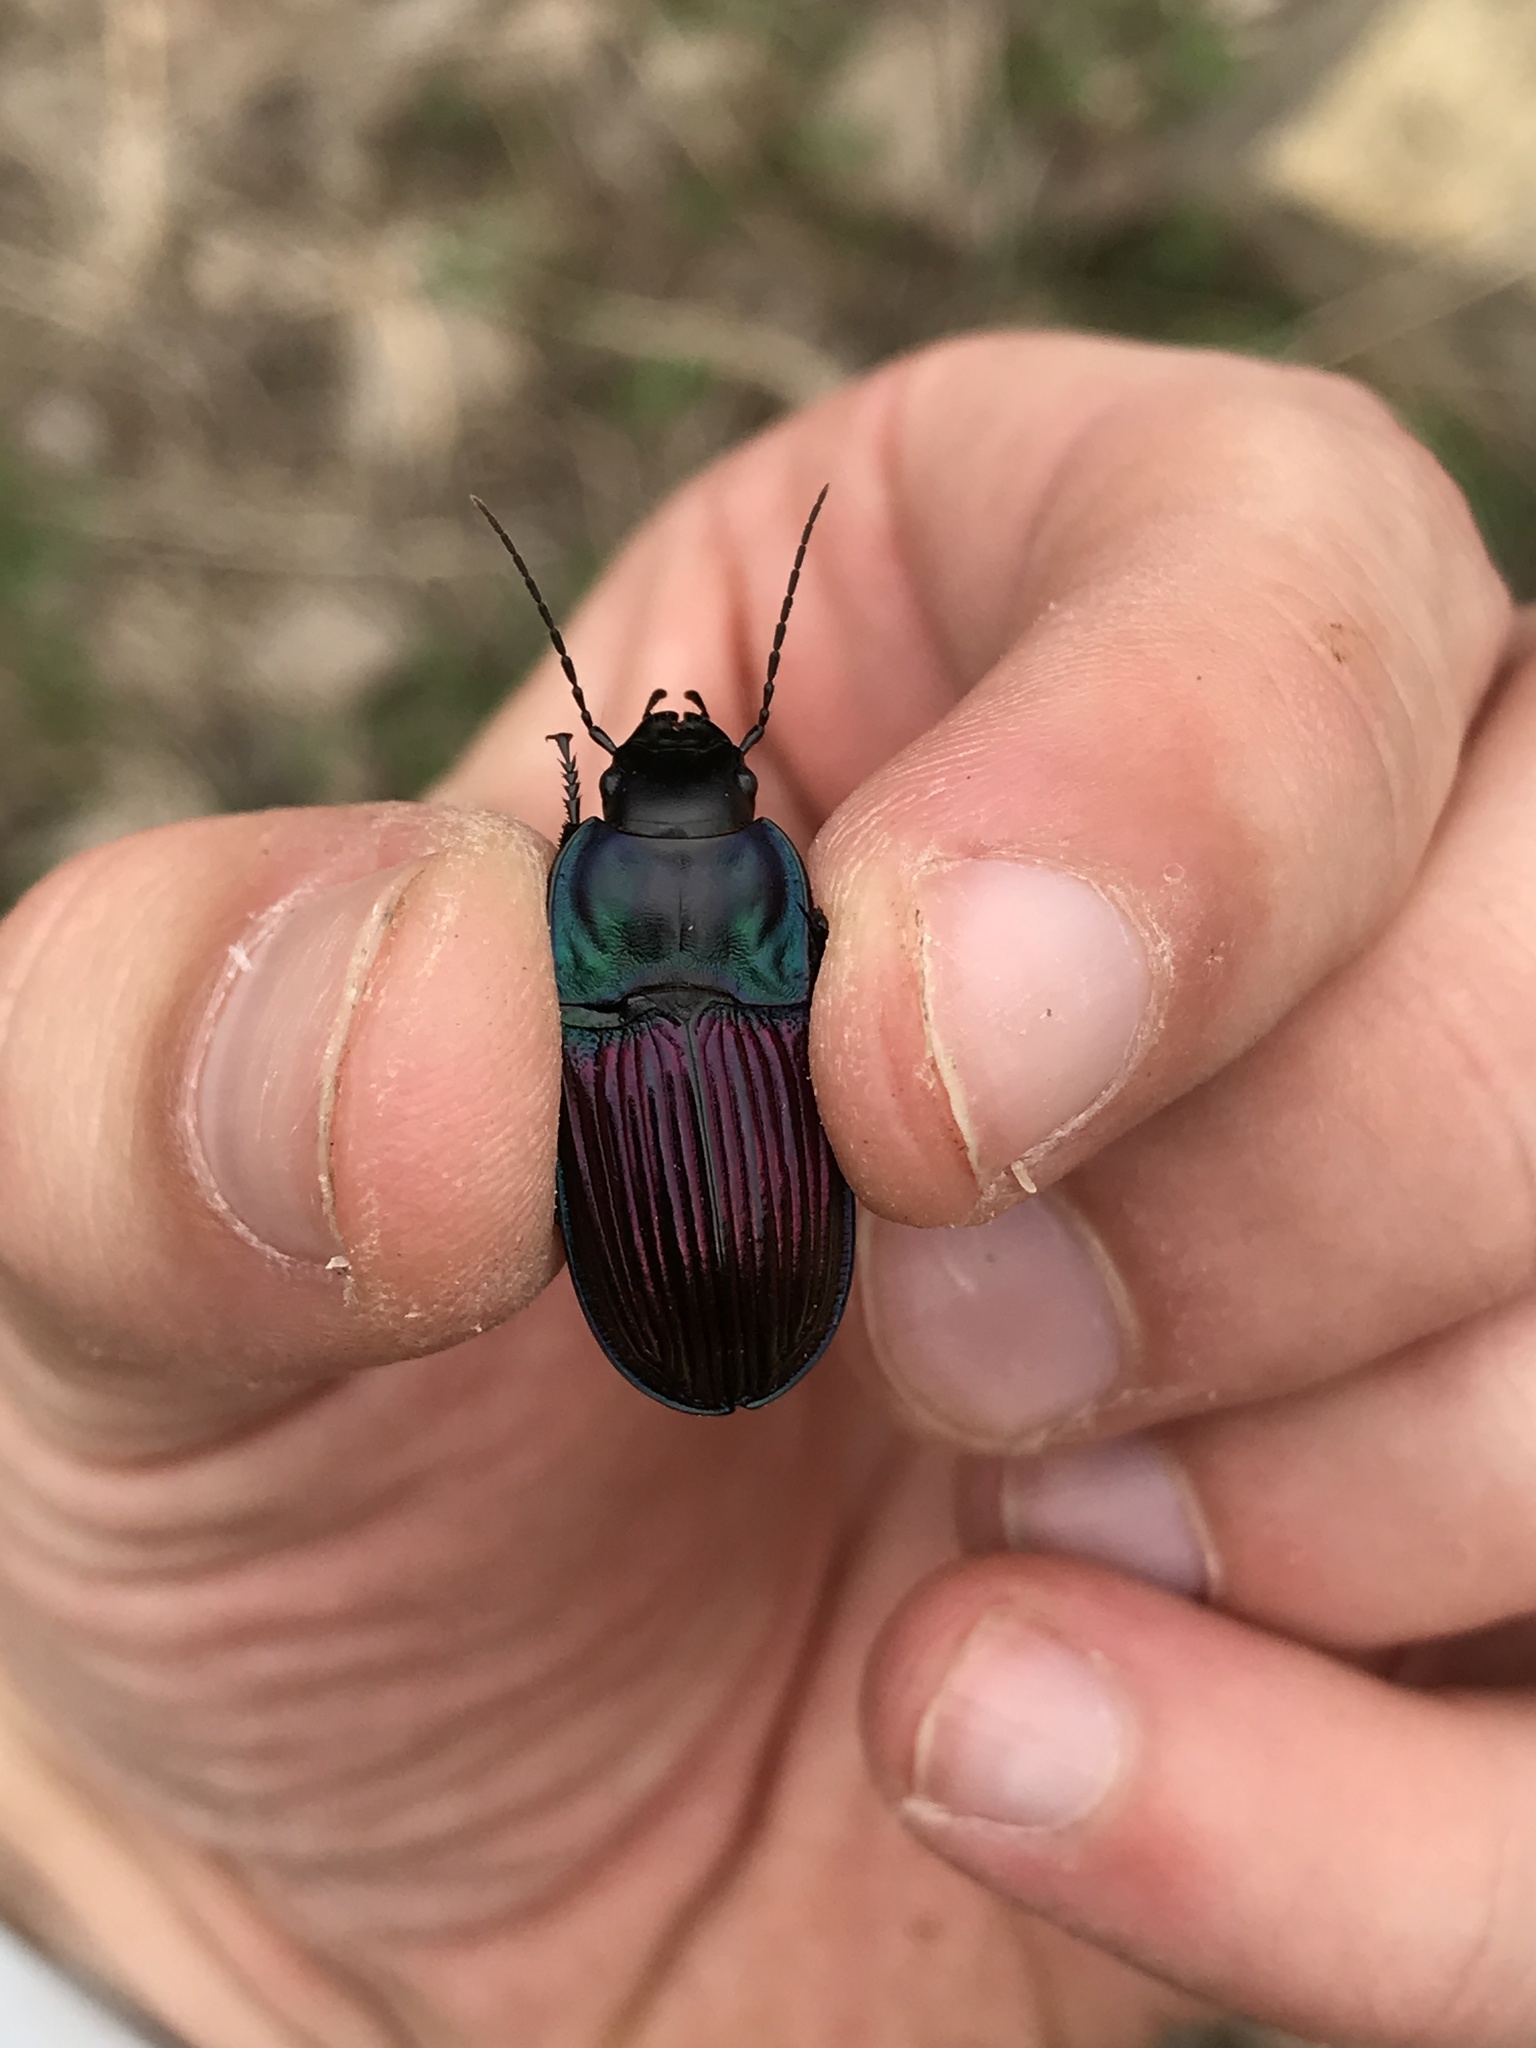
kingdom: Animalia
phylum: Arthropoda
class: Insecta
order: Coleoptera
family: Carabidae
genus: Dicaelus
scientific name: Dicaelus purpuratus
